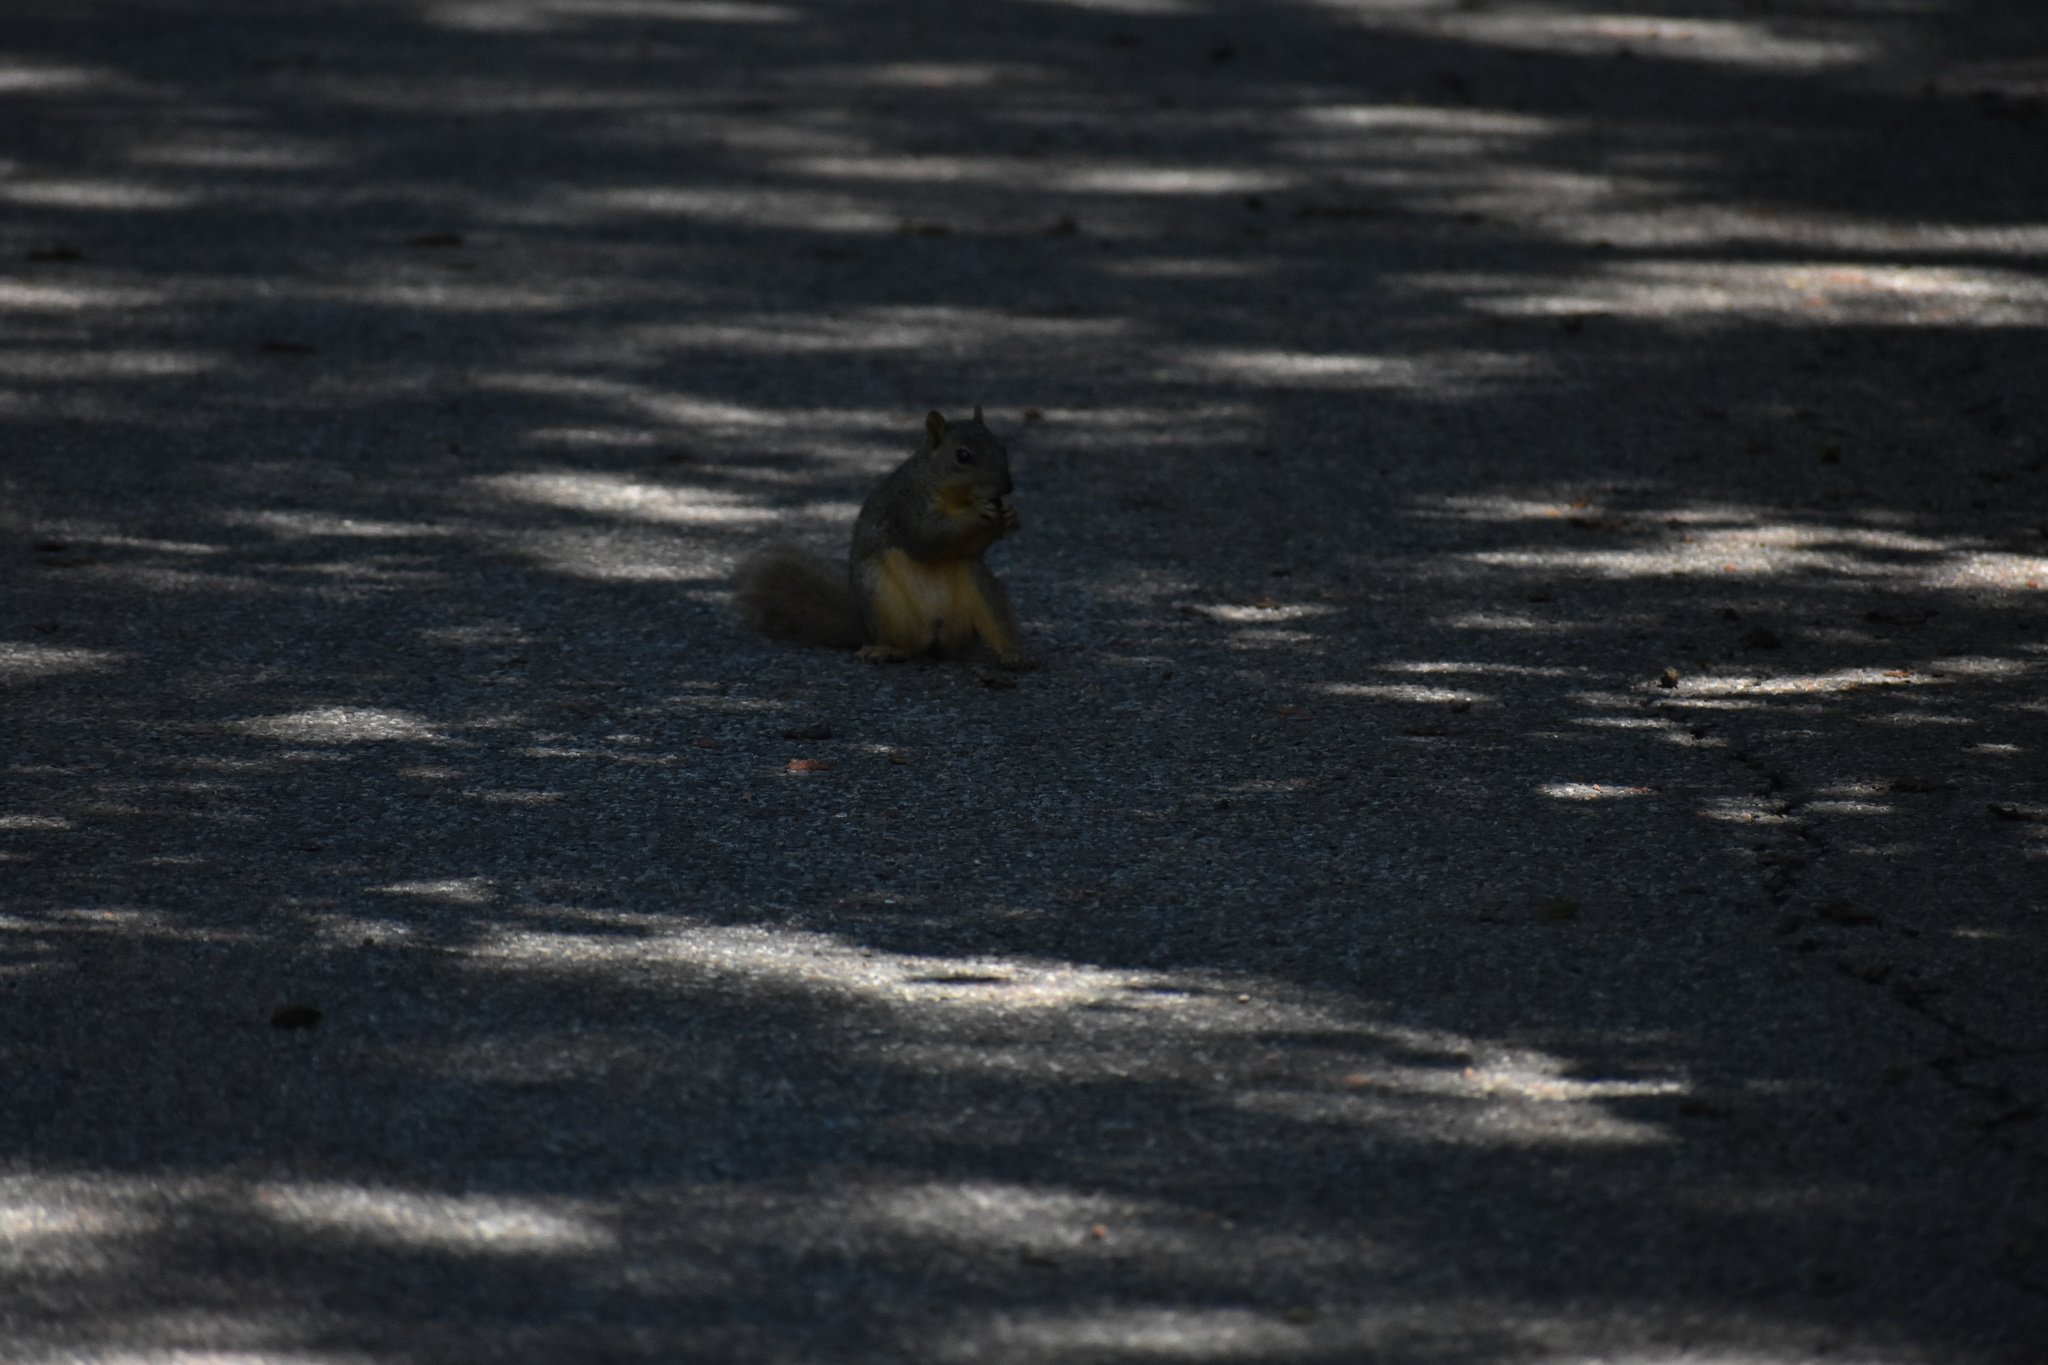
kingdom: Animalia
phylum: Chordata
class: Mammalia
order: Rodentia
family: Sciuridae
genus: Sciurus
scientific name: Sciurus niger
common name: Fox squirrel
